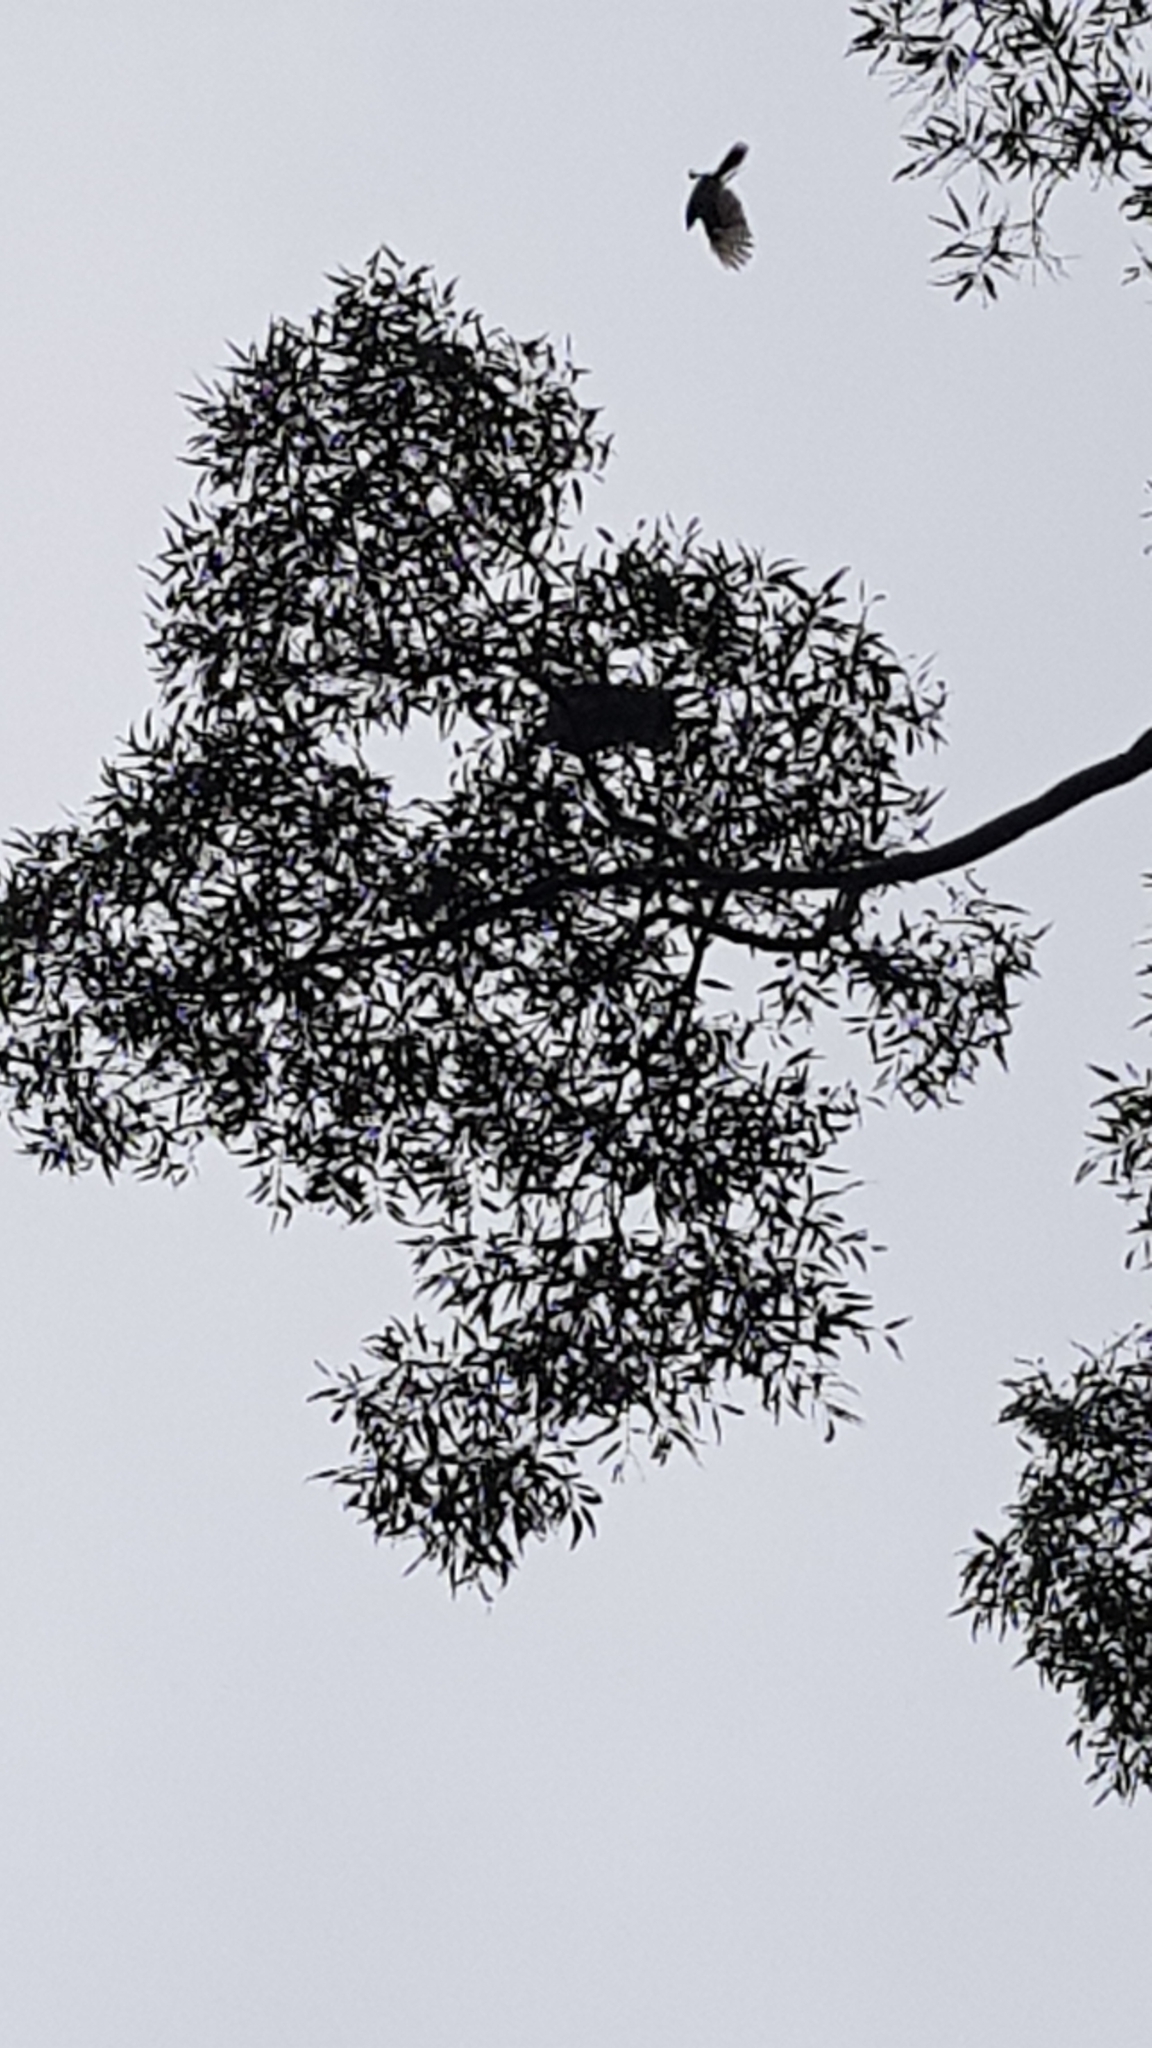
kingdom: Animalia
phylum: Chordata
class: Aves
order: Accipitriformes
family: Accipitridae
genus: Aviceda
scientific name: Aviceda subcristata
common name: Pacific baza
